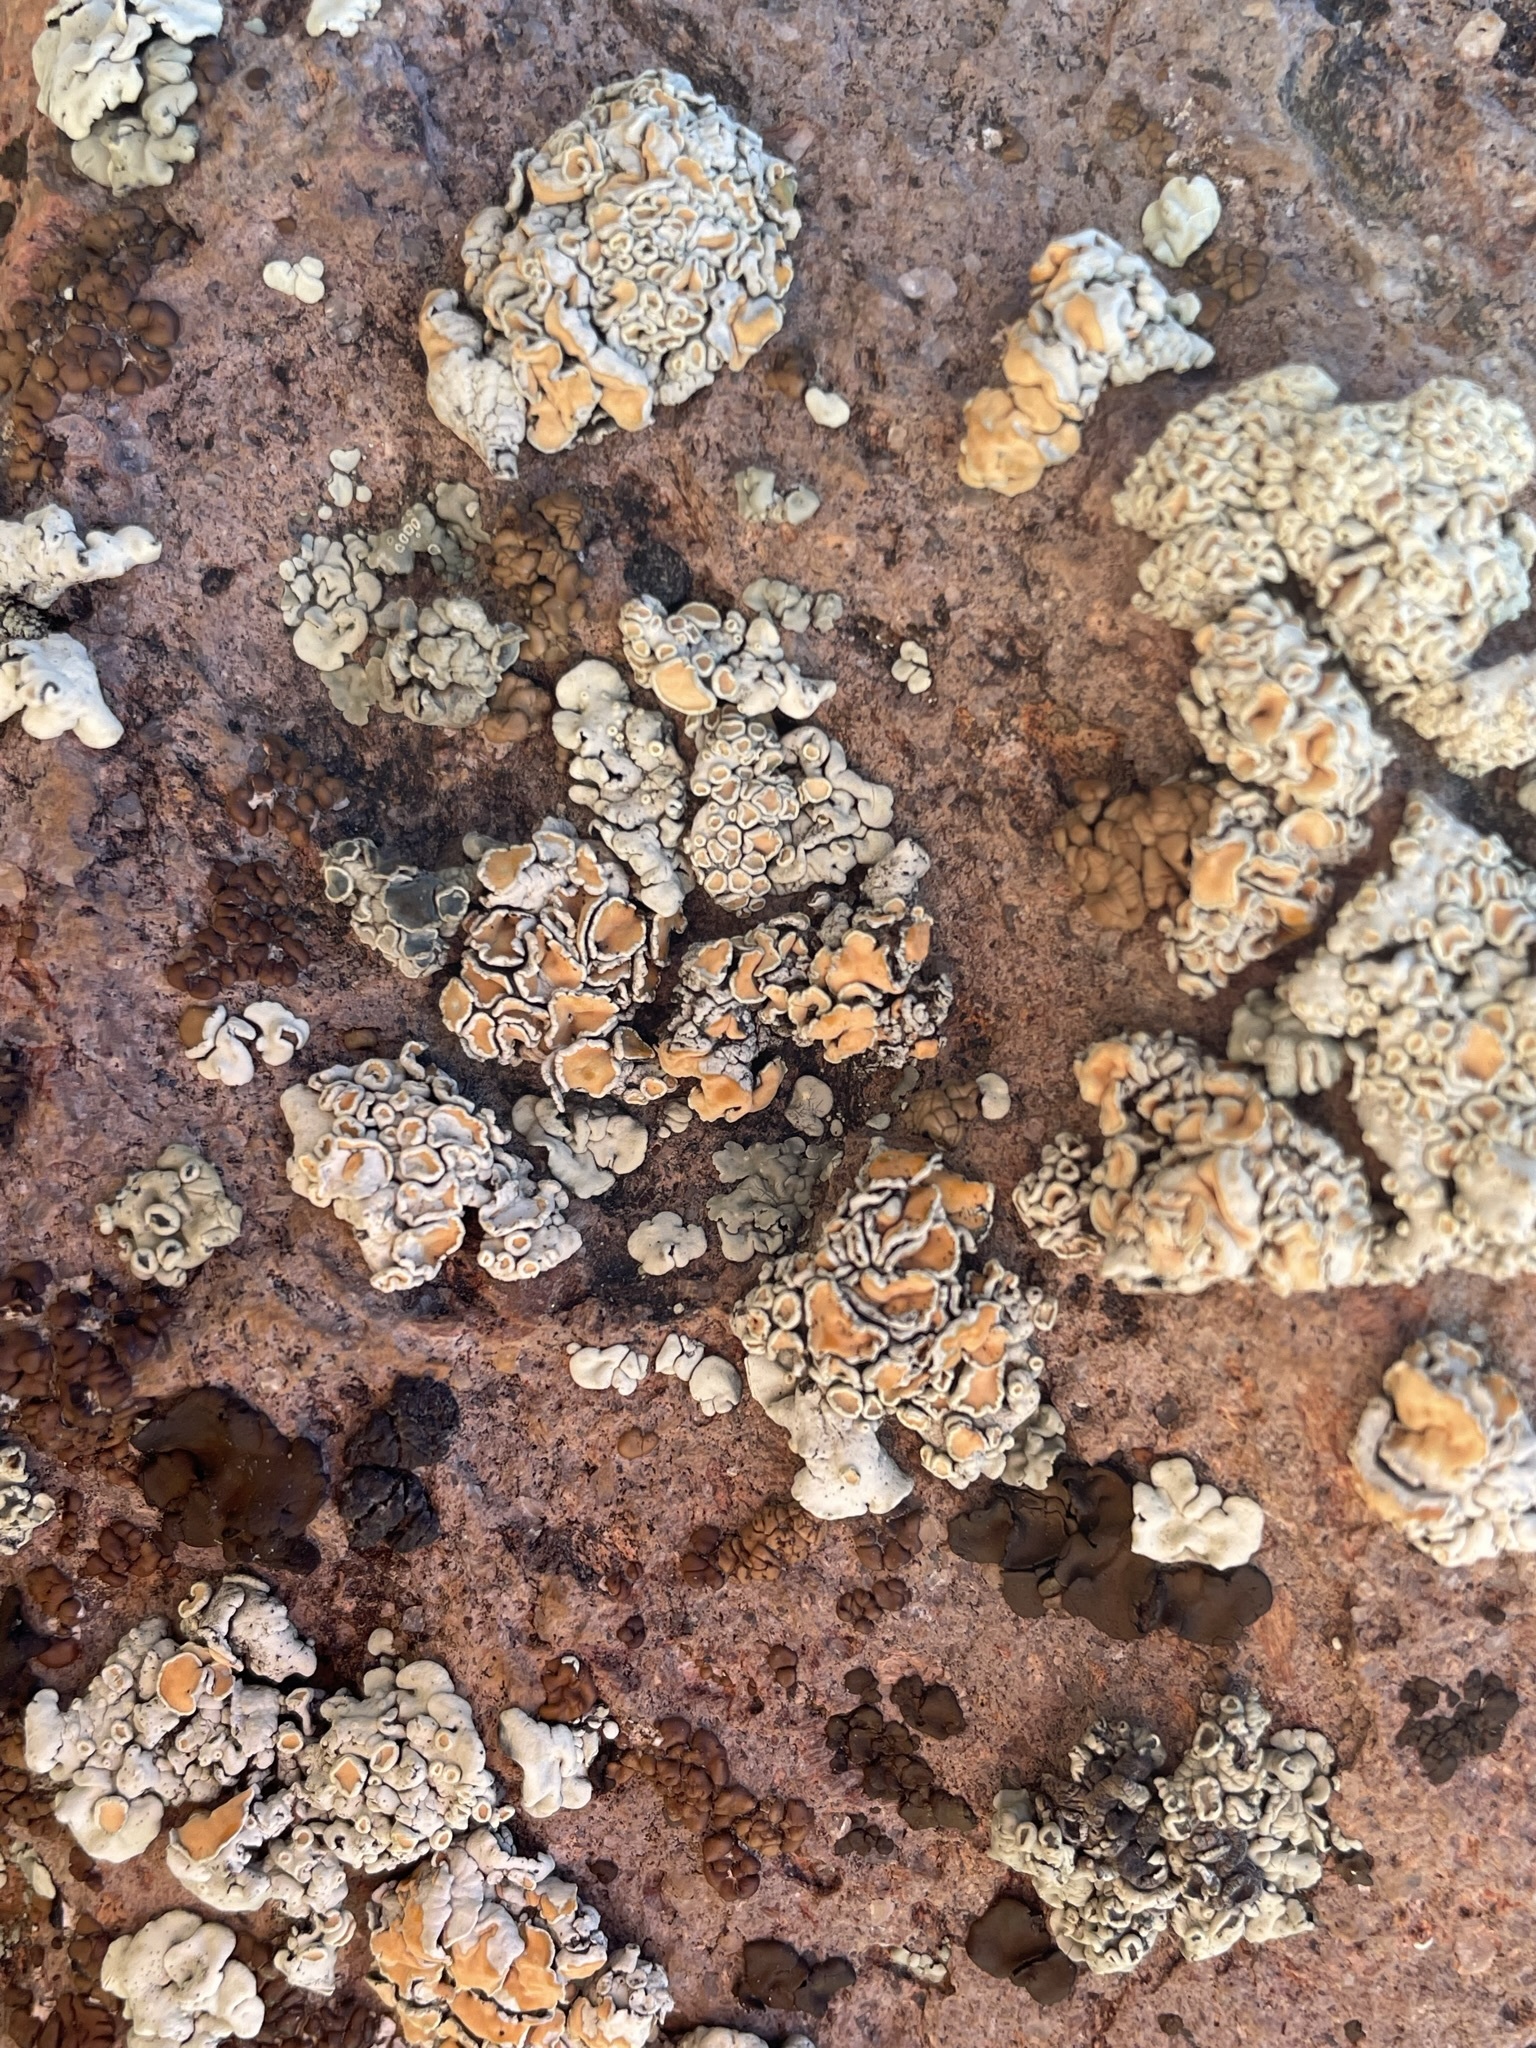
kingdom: Fungi
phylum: Ascomycota
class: Lecanoromycetes
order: Lecanorales
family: Lecanoraceae
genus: Omphalodina
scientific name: Omphalodina chrysoleuca
